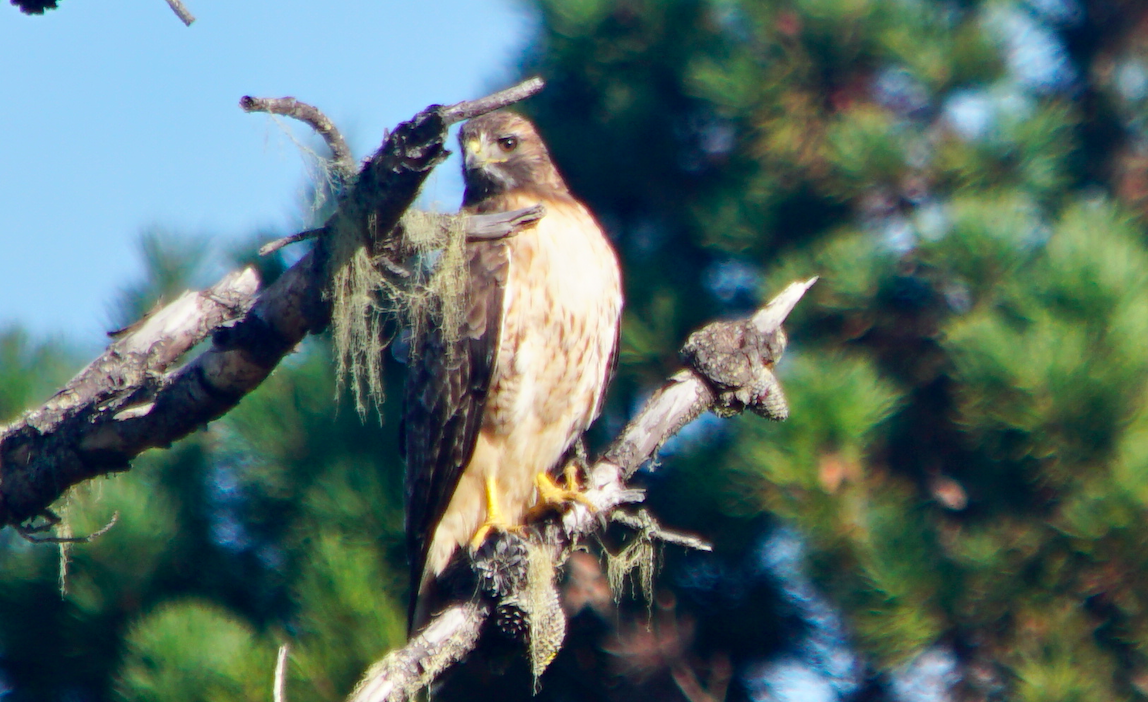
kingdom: Animalia
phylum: Chordata
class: Aves
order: Accipitriformes
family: Accipitridae
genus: Buteo
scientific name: Buteo jamaicensis
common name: Red-tailed hawk
